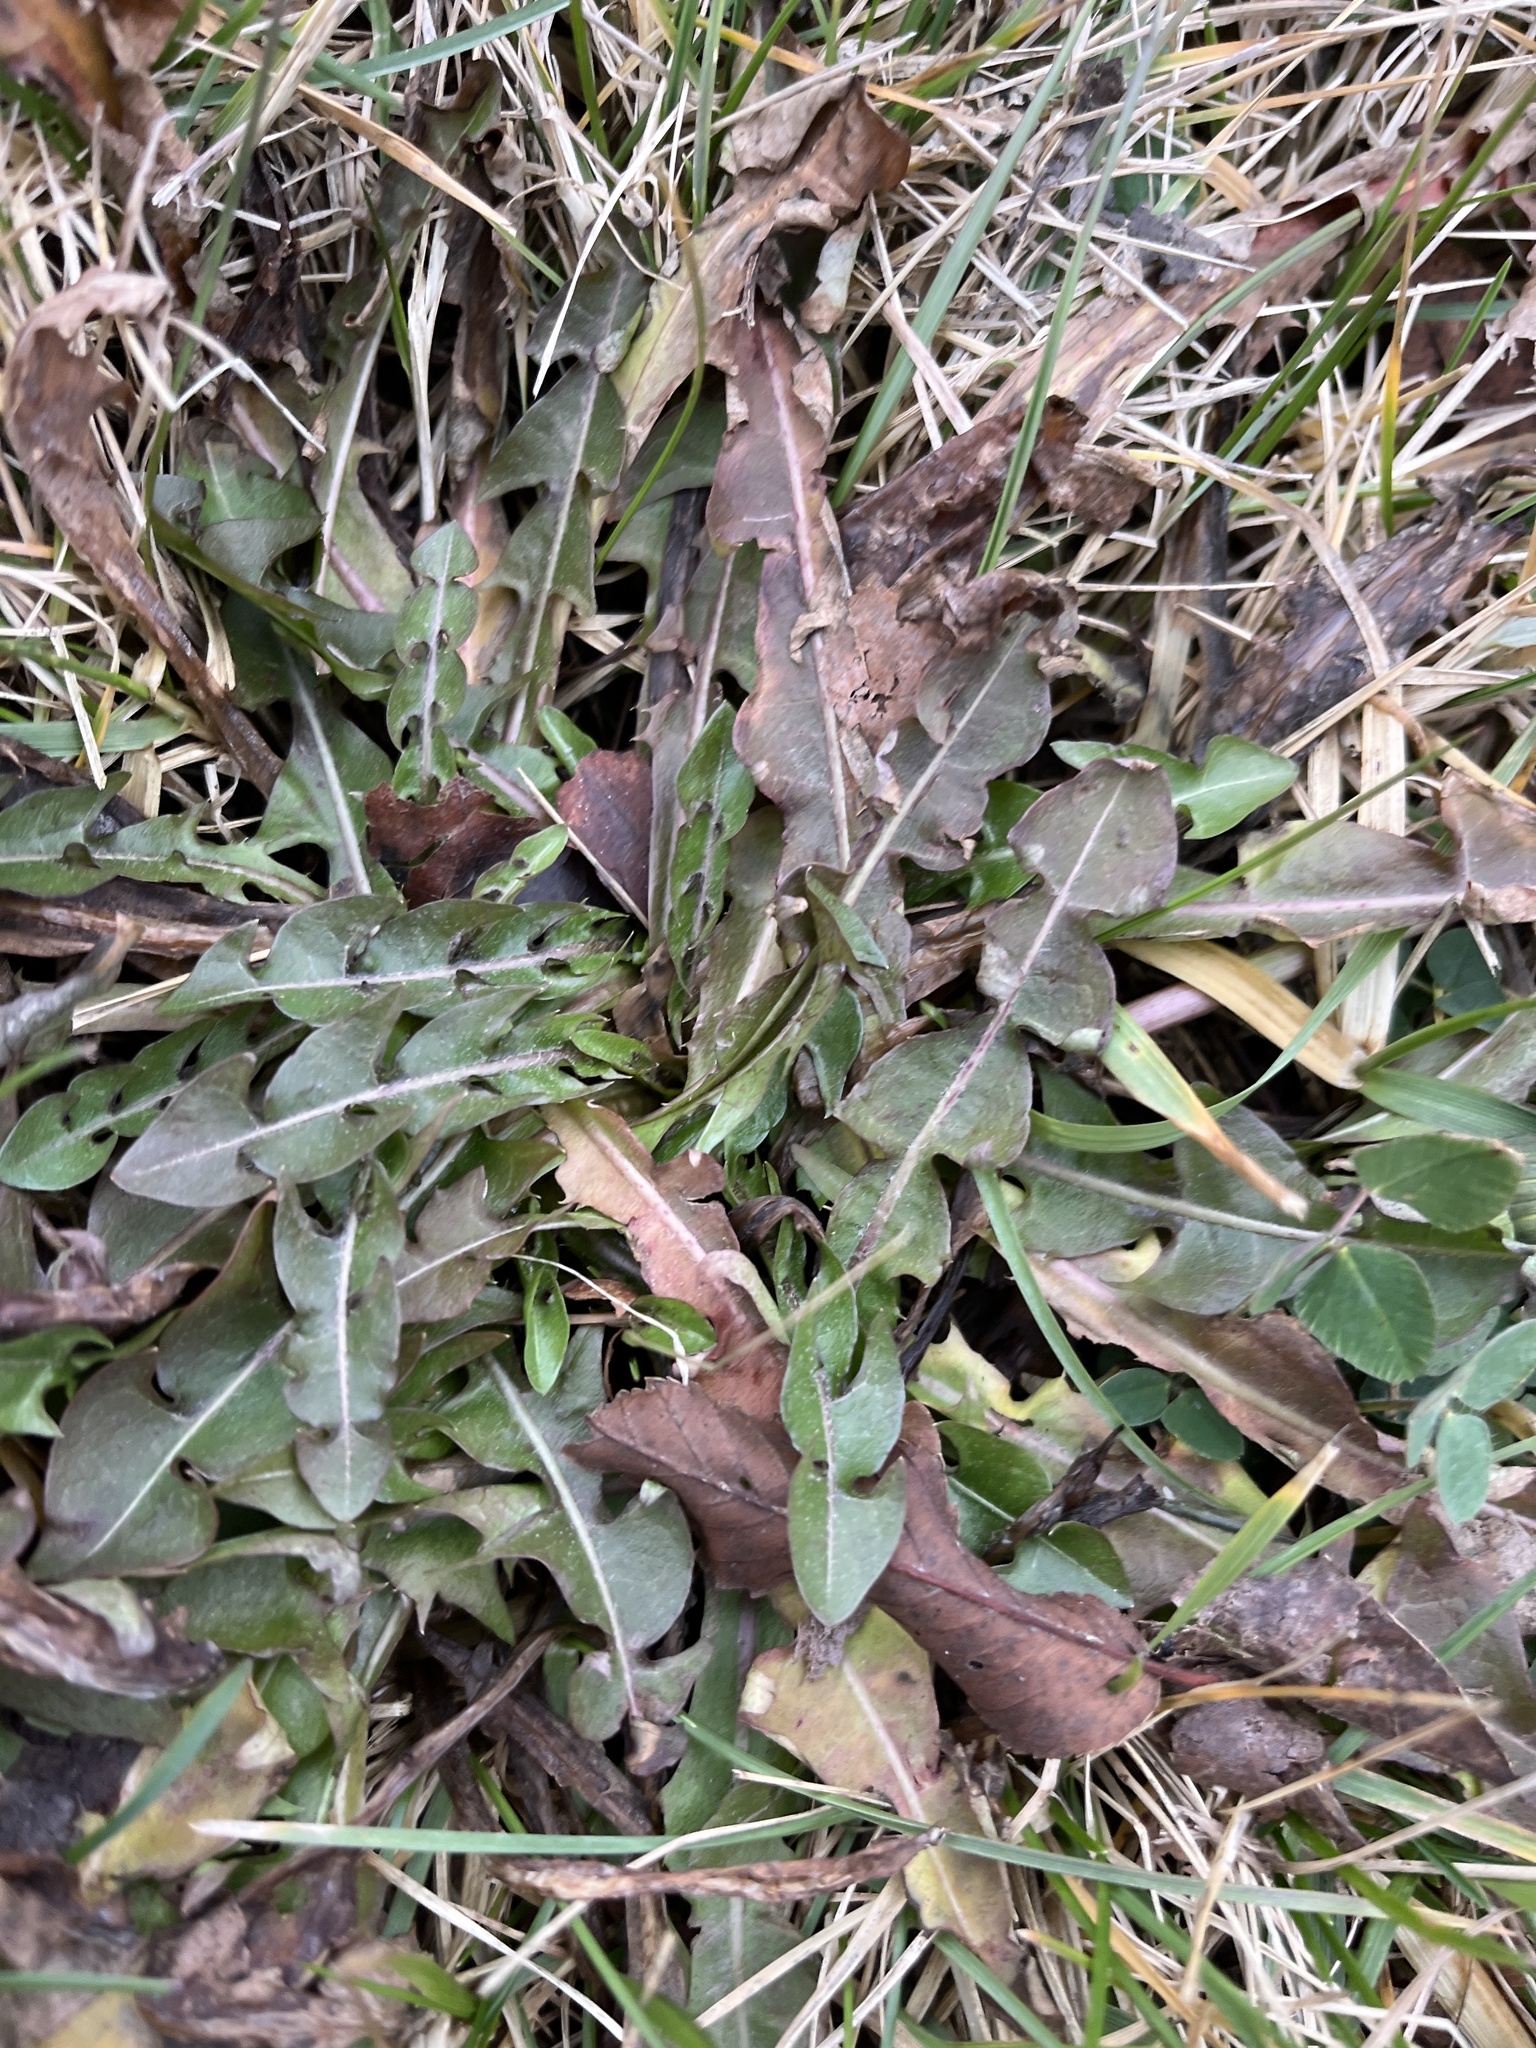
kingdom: Plantae
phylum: Tracheophyta
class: Magnoliopsida
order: Asterales
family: Asteraceae
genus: Taraxacum
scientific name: Taraxacum officinale
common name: Common dandelion
